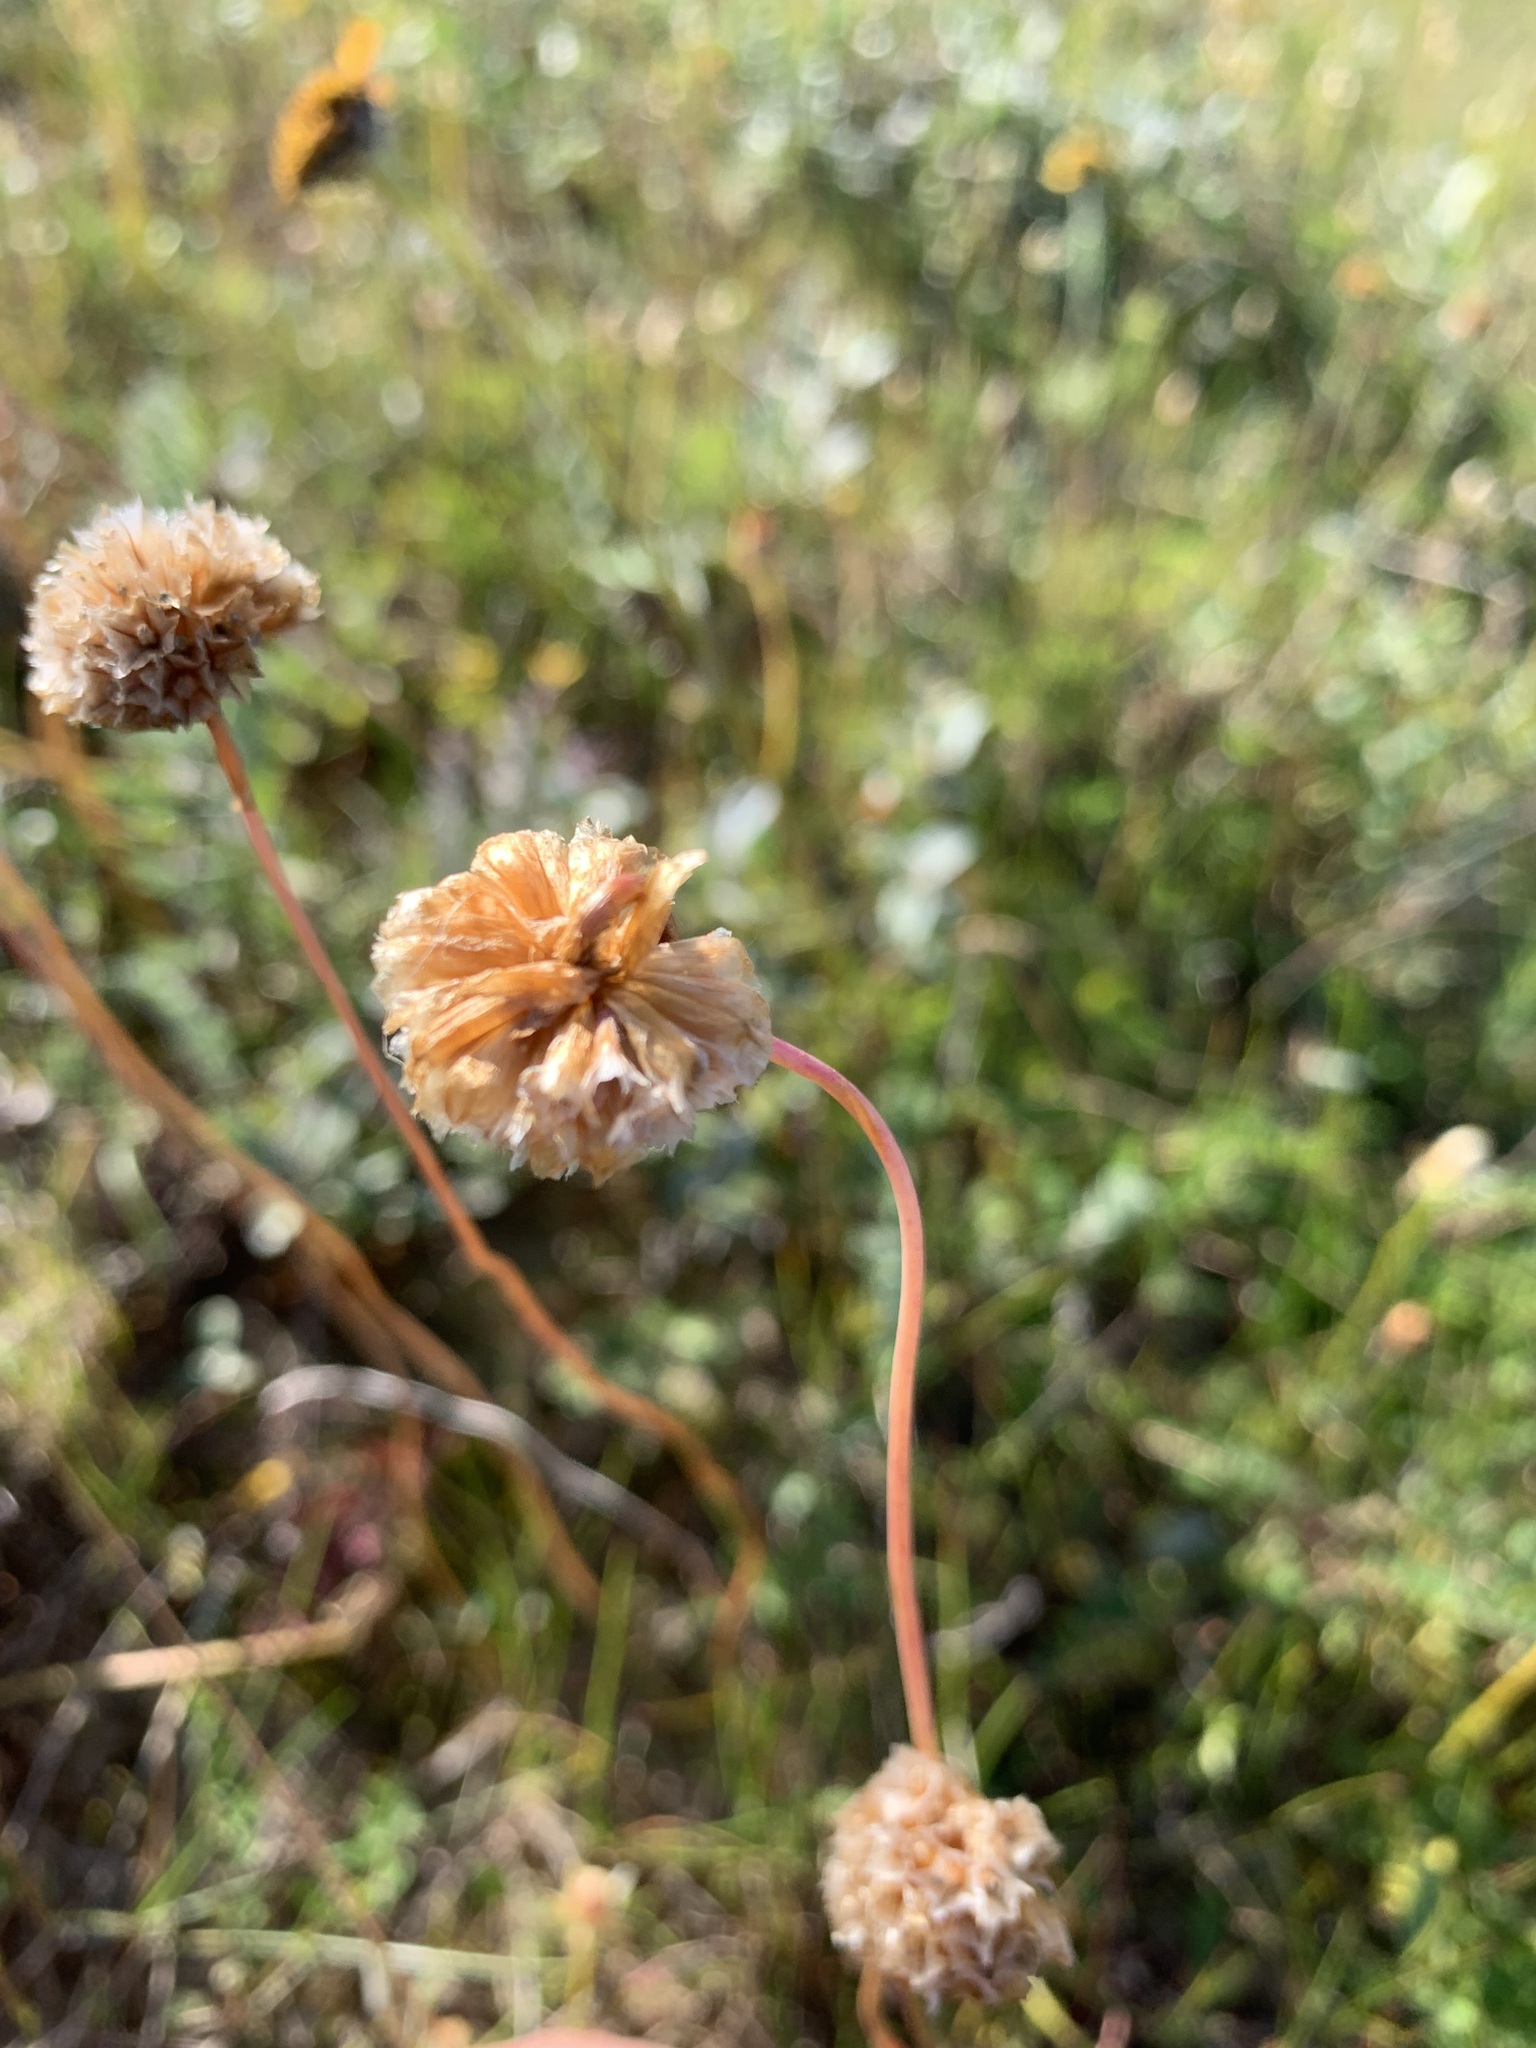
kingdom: Plantae
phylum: Tracheophyta
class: Magnoliopsida
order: Caryophyllales
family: Plumbaginaceae
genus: Armeria
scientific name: Armeria maritima
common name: Thrift
